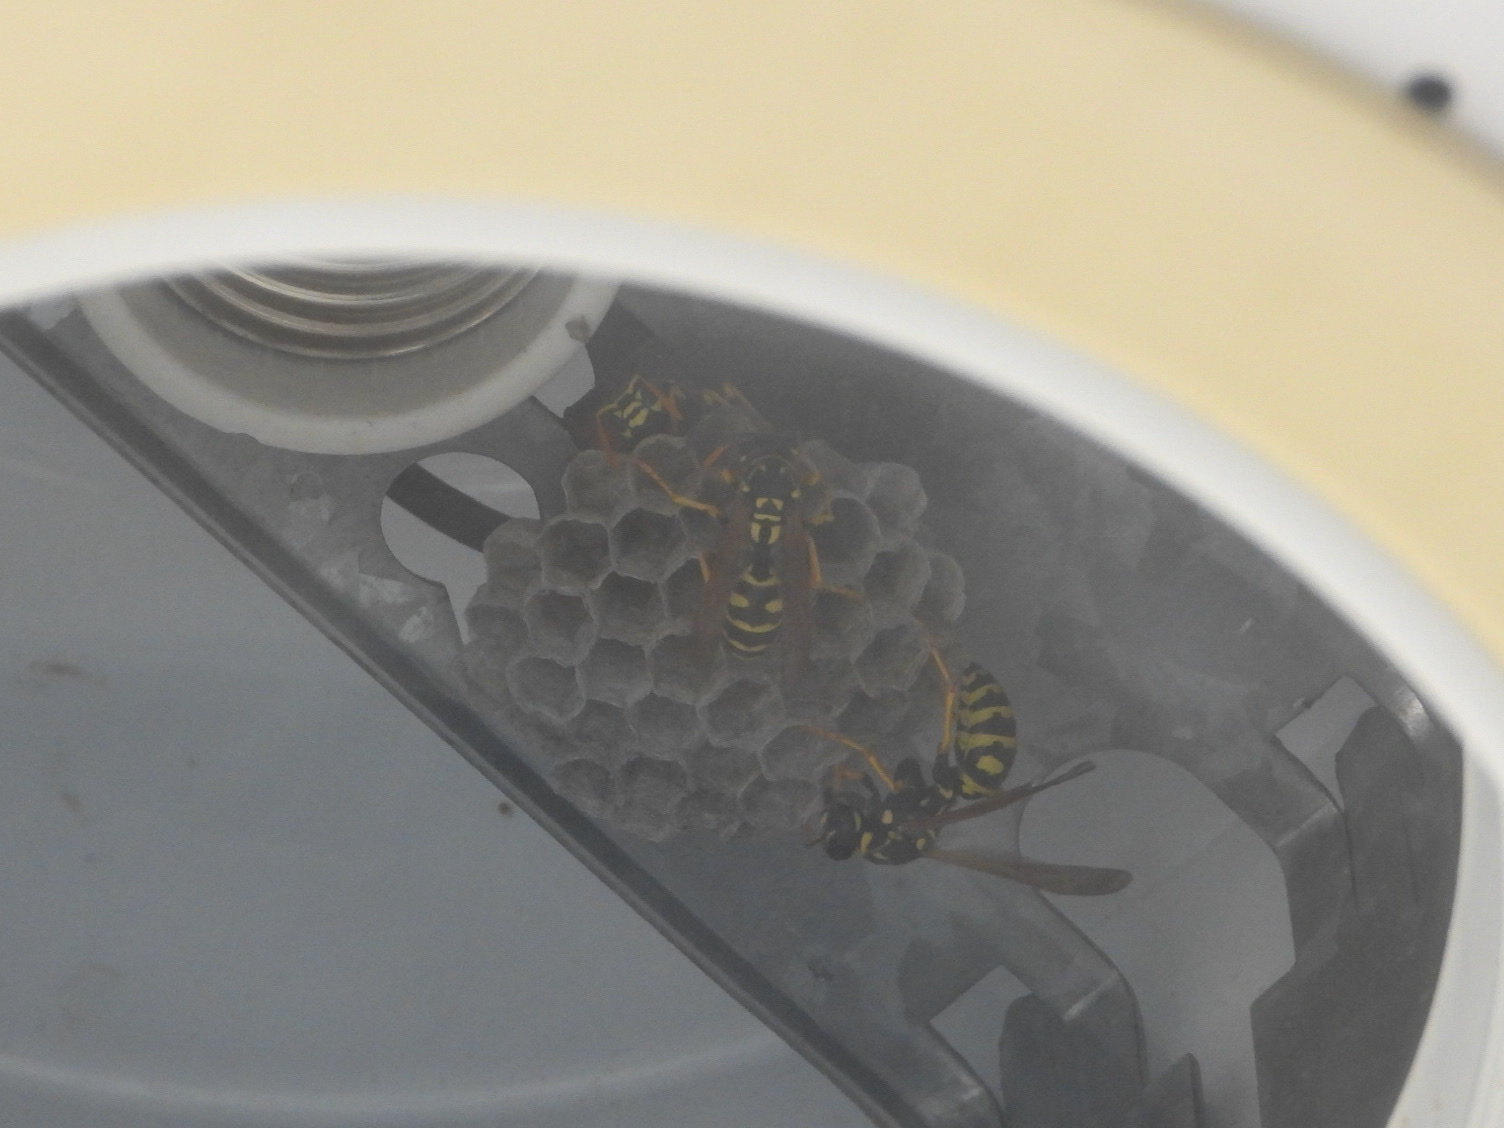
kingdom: Animalia
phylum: Arthropoda
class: Insecta
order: Hymenoptera
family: Eumenidae
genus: Polistes
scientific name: Polistes dominula
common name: Paper wasp
